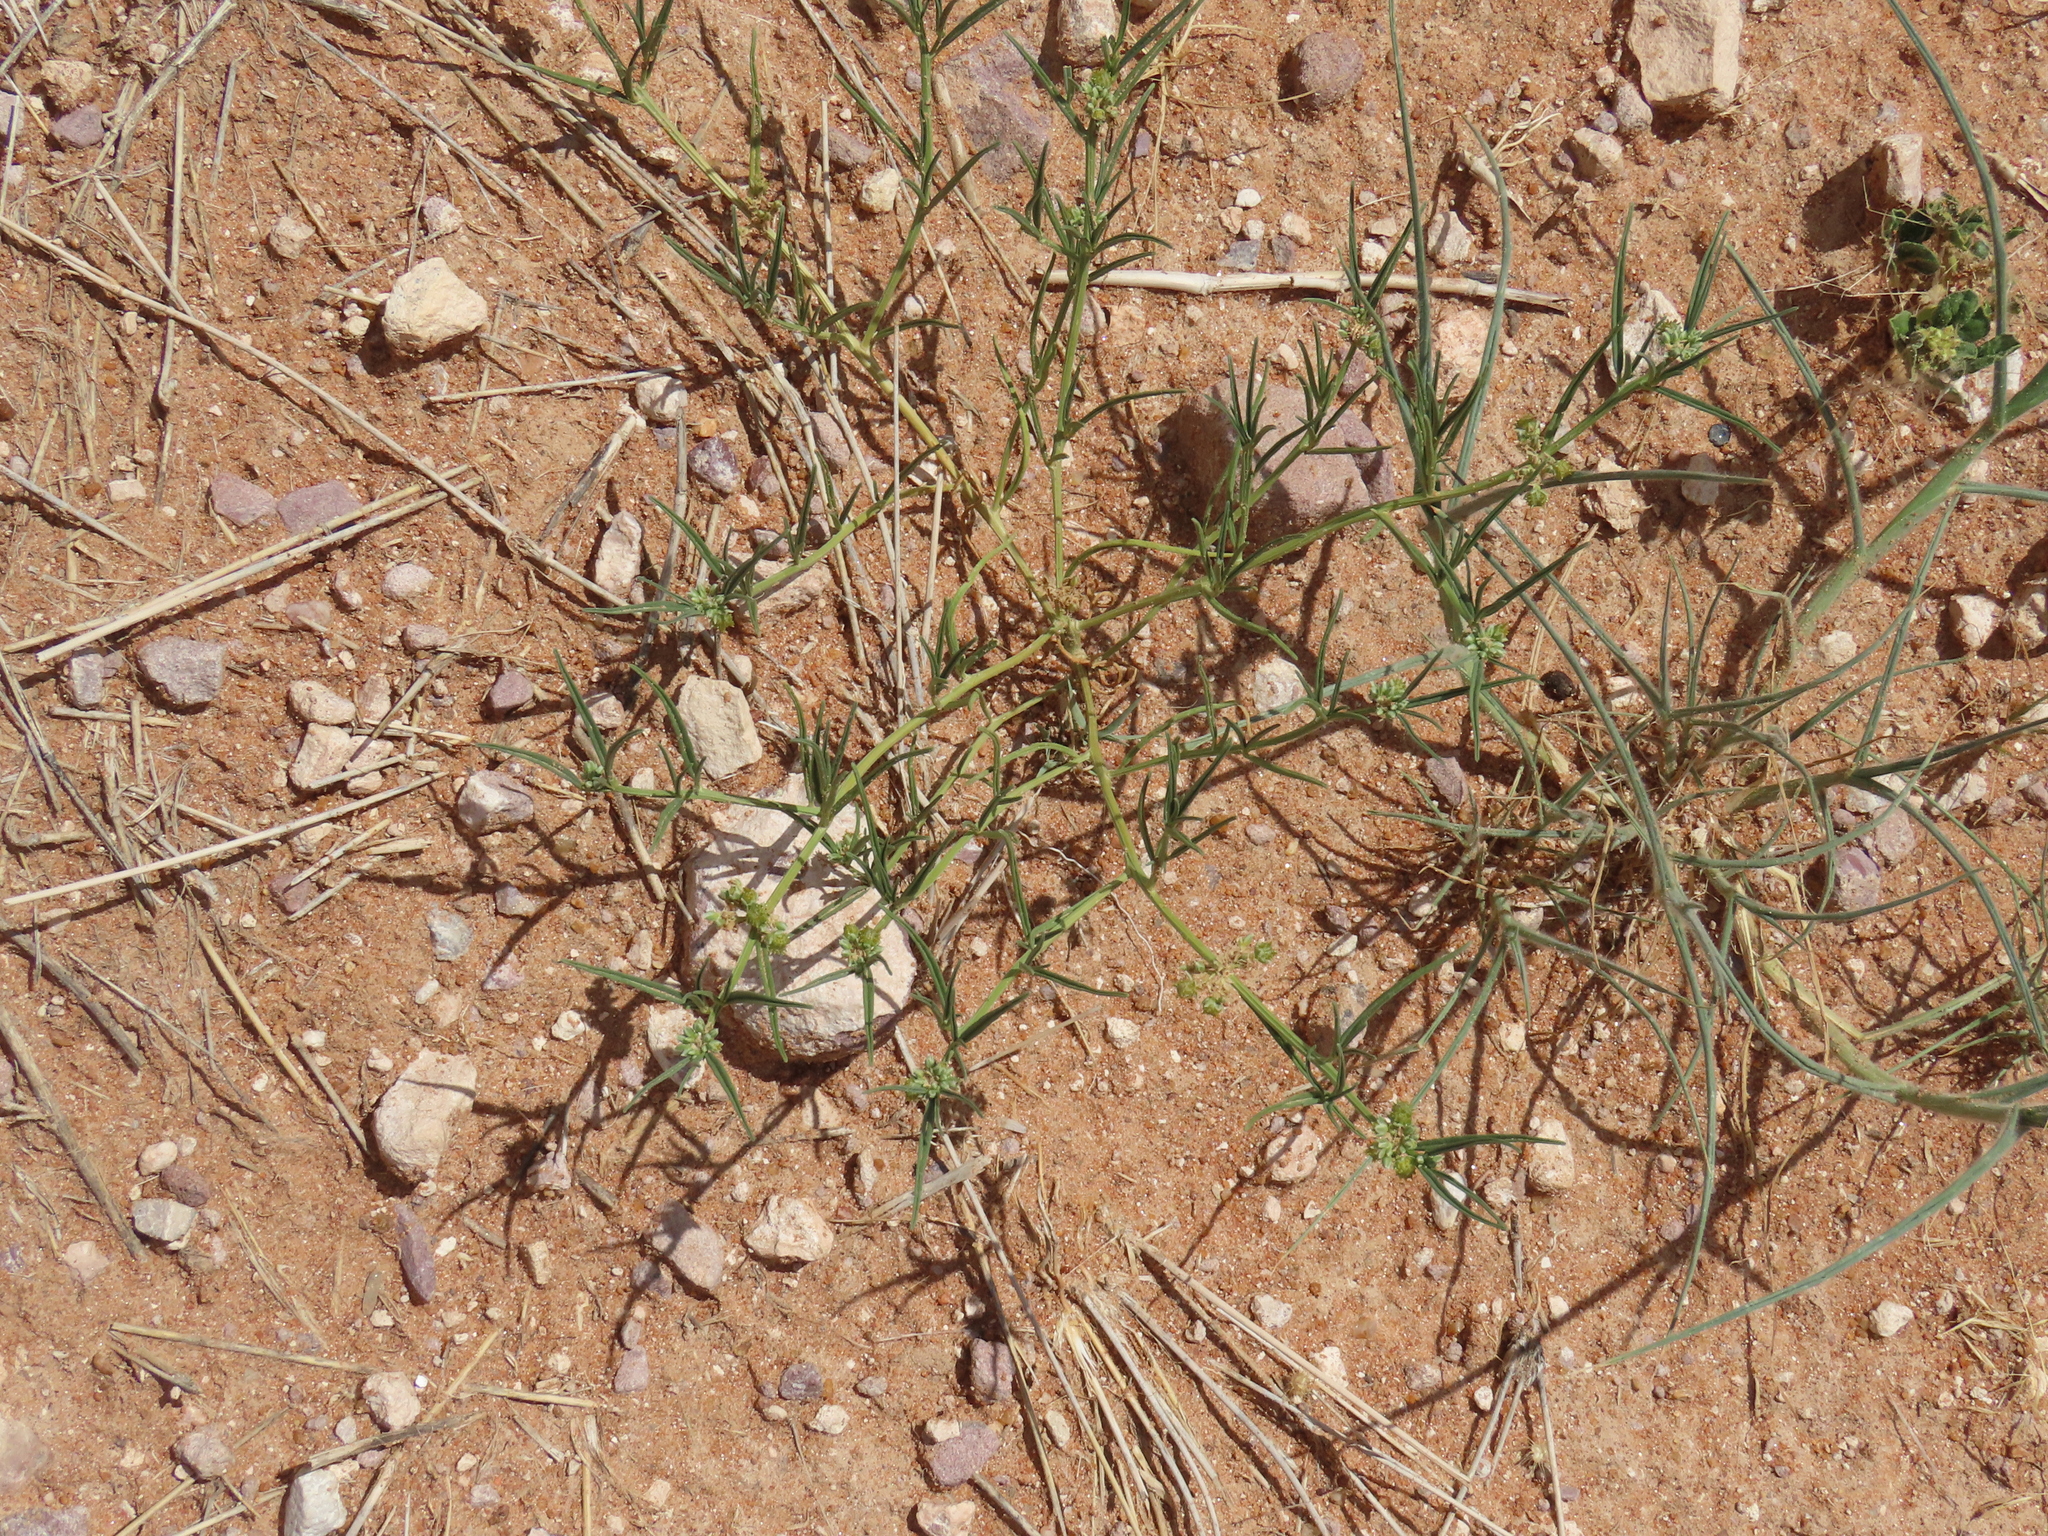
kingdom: Plantae
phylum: Tracheophyta
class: Magnoliopsida
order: Caryophyllales
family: Limeaceae
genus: Limeum
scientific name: Limeum sulcatum
